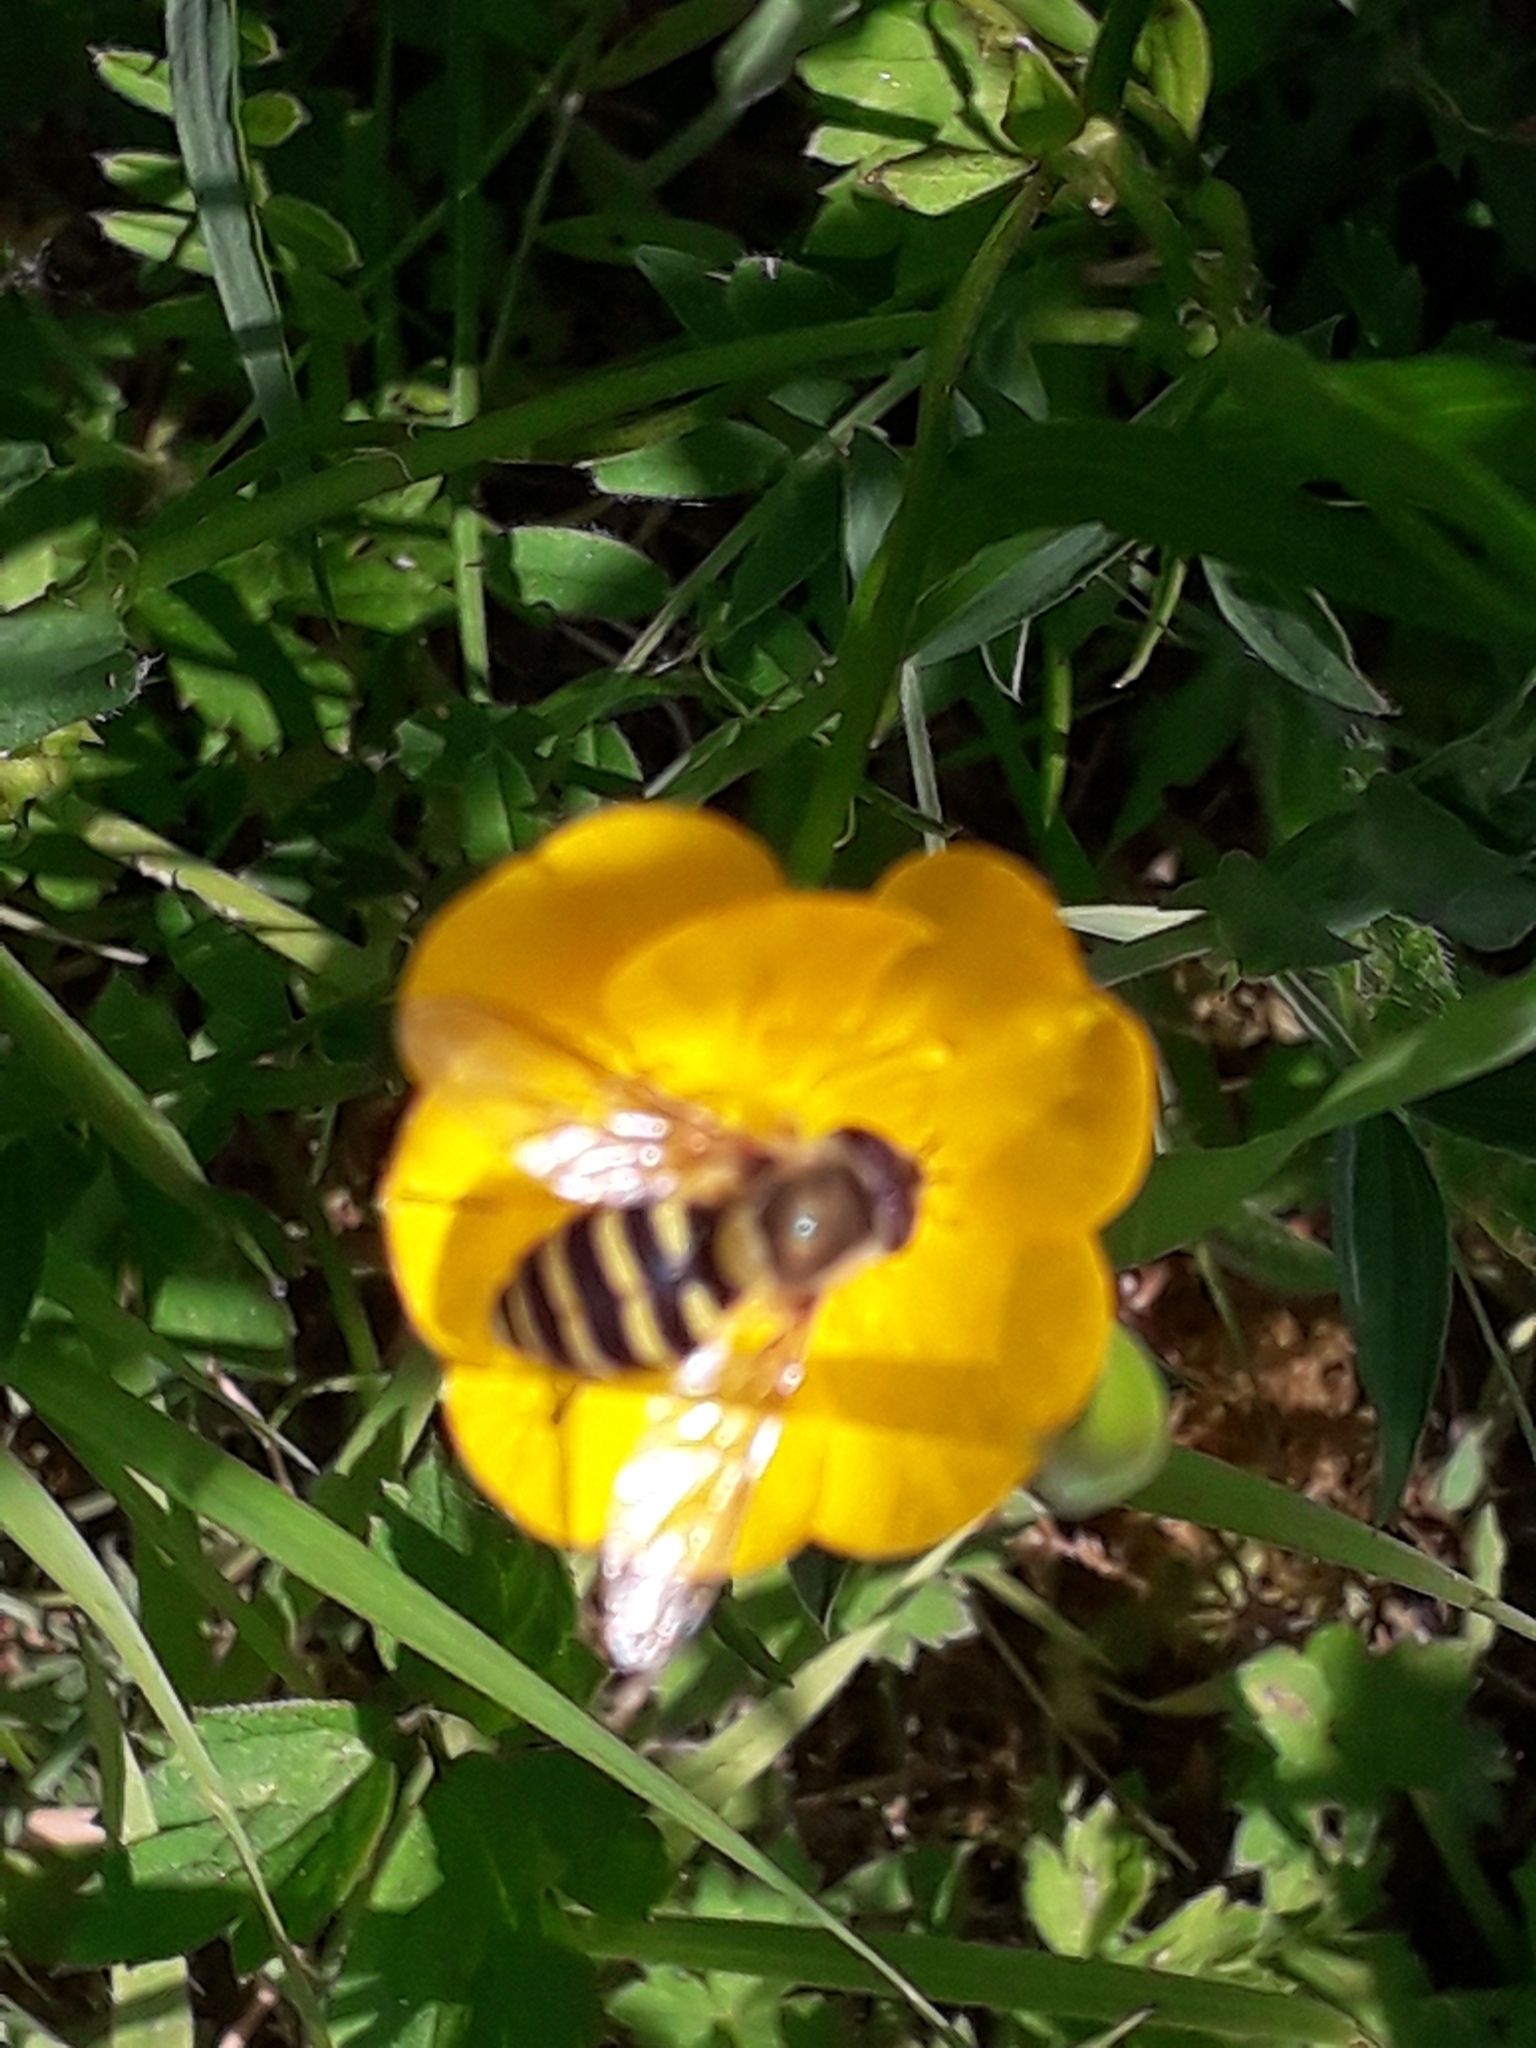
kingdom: Animalia
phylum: Arthropoda
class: Insecta
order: Diptera
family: Syrphidae
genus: Syrphus
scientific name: Syrphus
